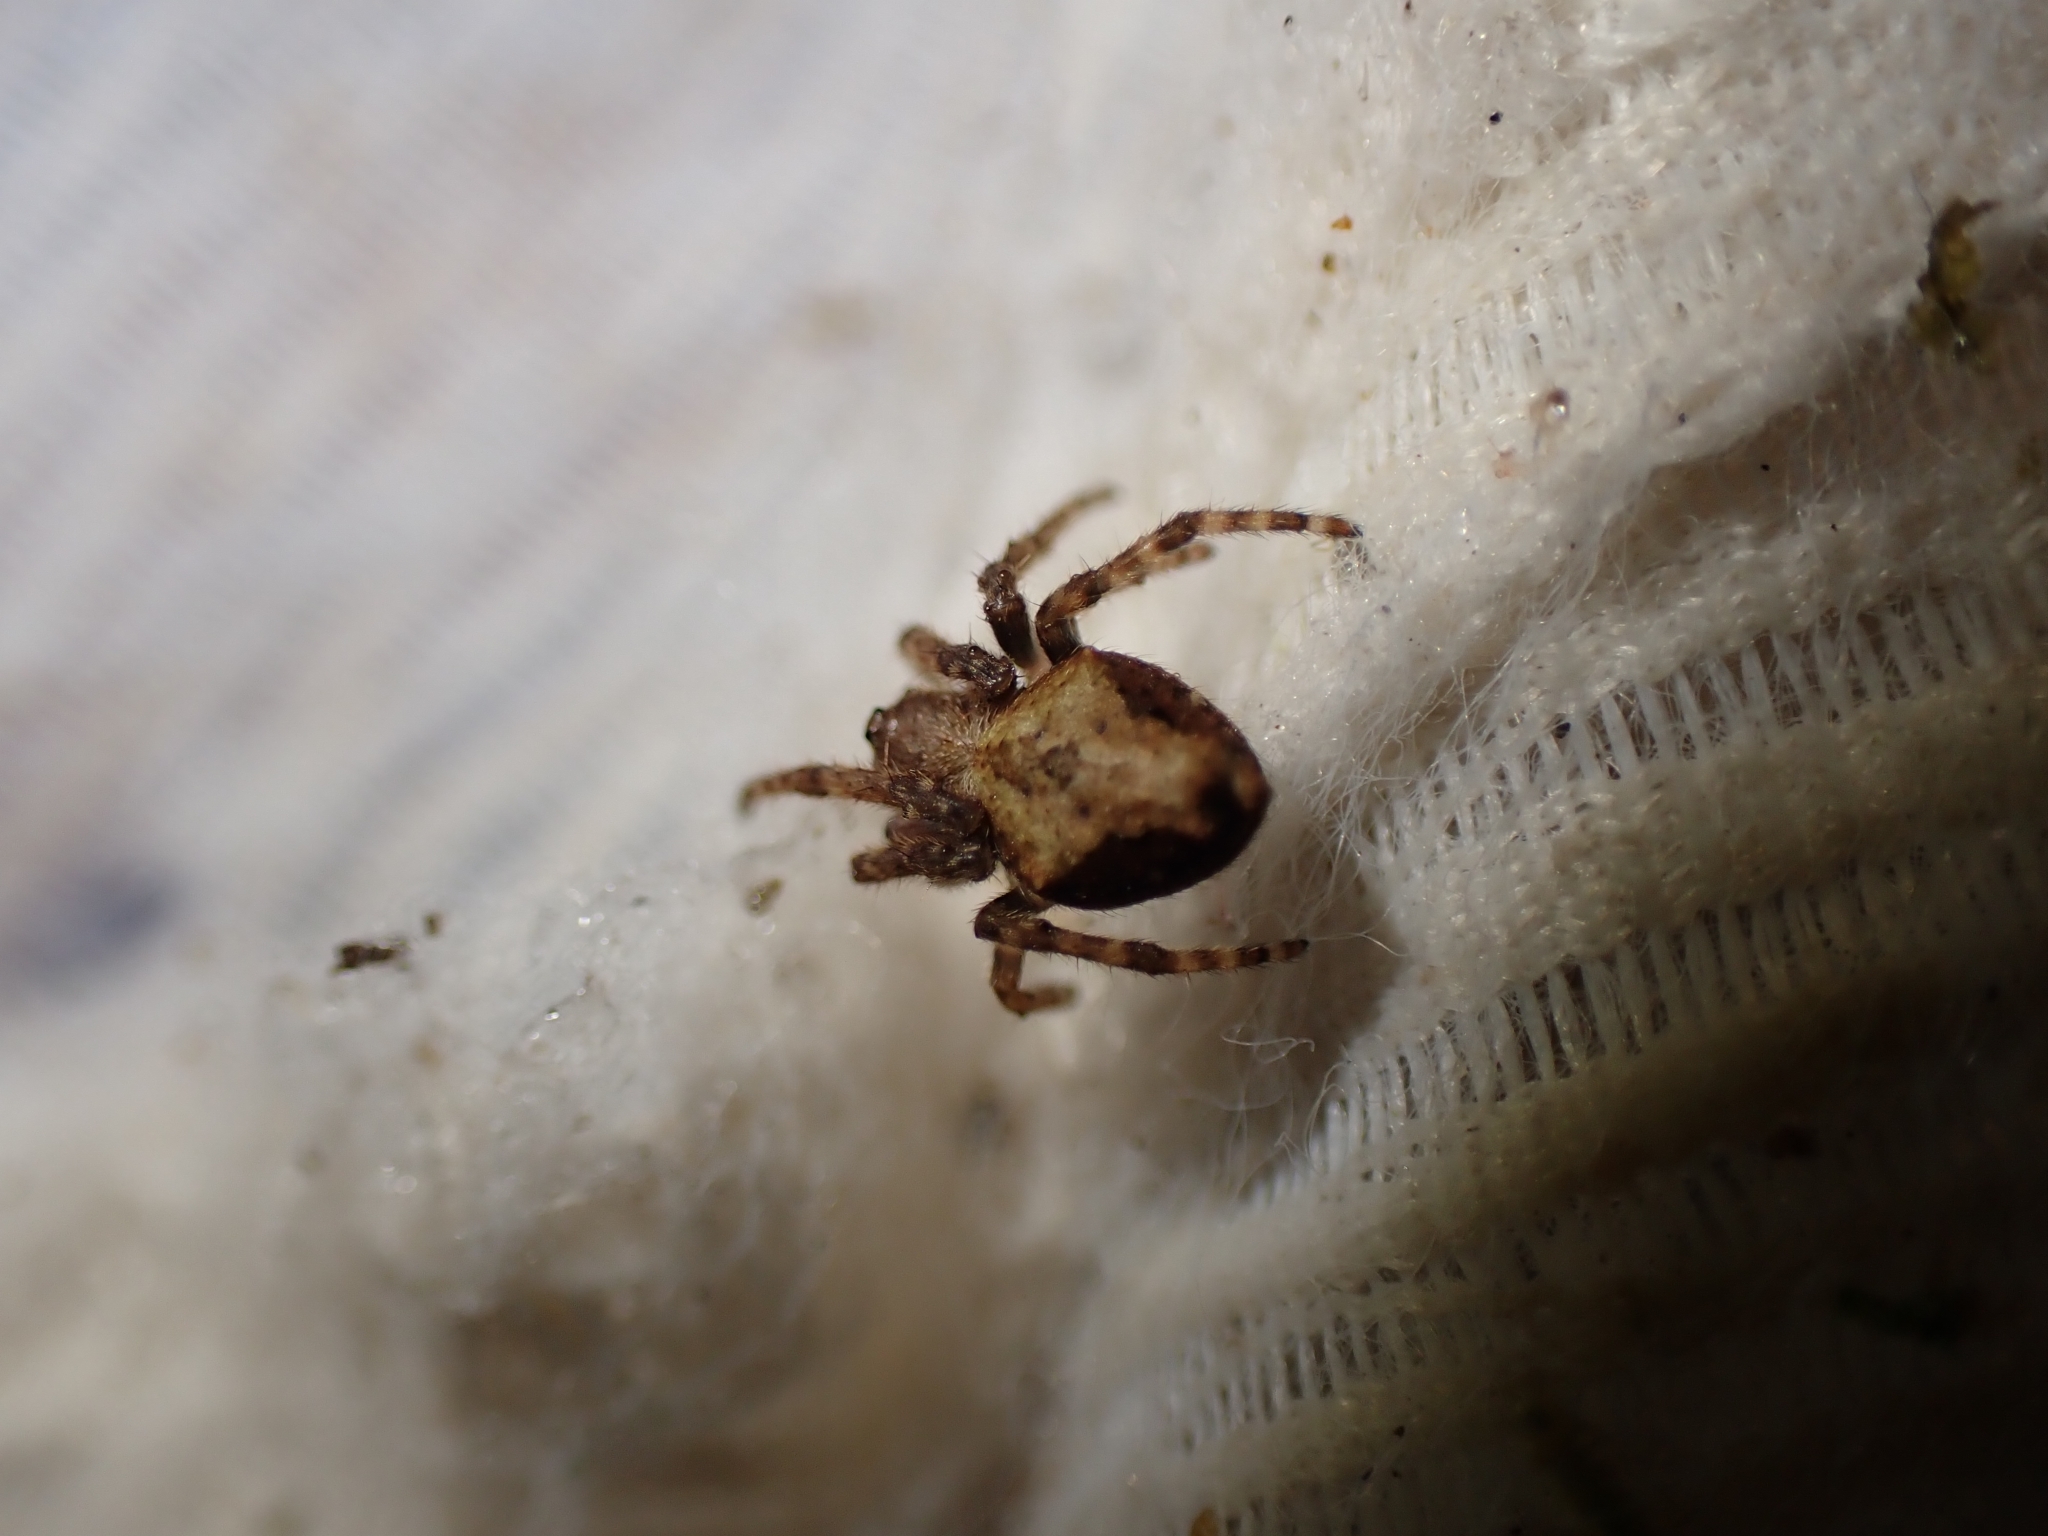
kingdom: Animalia
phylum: Arthropoda
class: Arachnida
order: Araneae
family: Araneidae
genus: Eriophora
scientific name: Eriophora pustulosa
